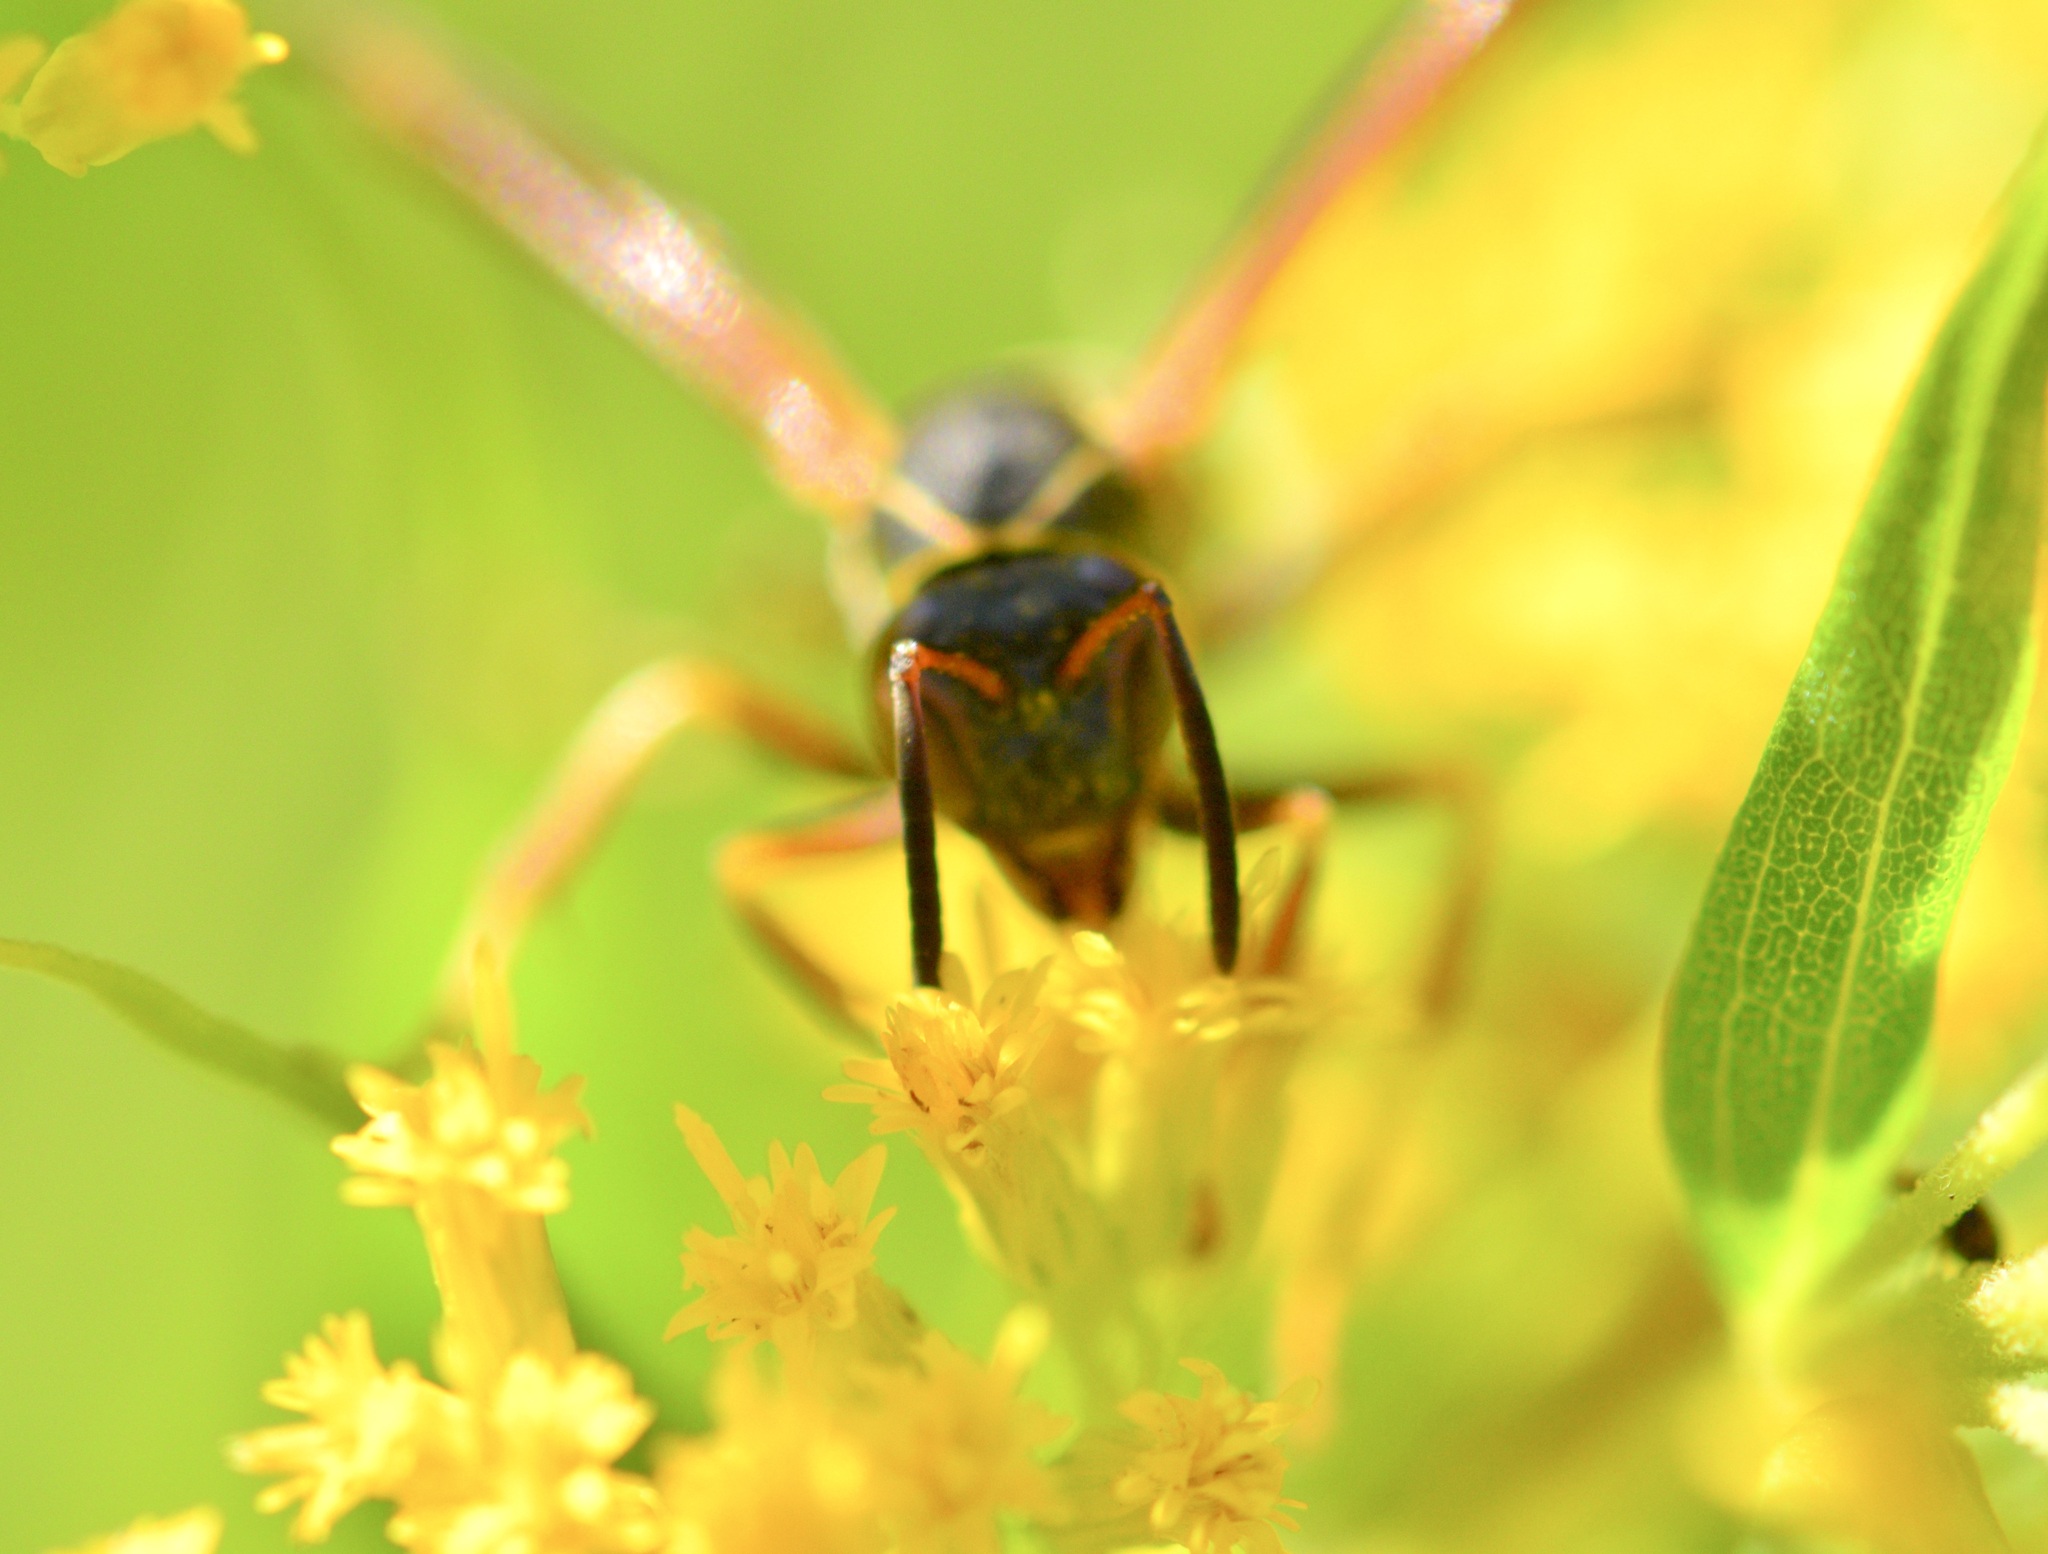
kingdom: Animalia
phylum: Arthropoda
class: Insecta
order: Hymenoptera
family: Eumenidae
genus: Polistes
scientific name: Polistes fuscatus
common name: Dark paper wasp
